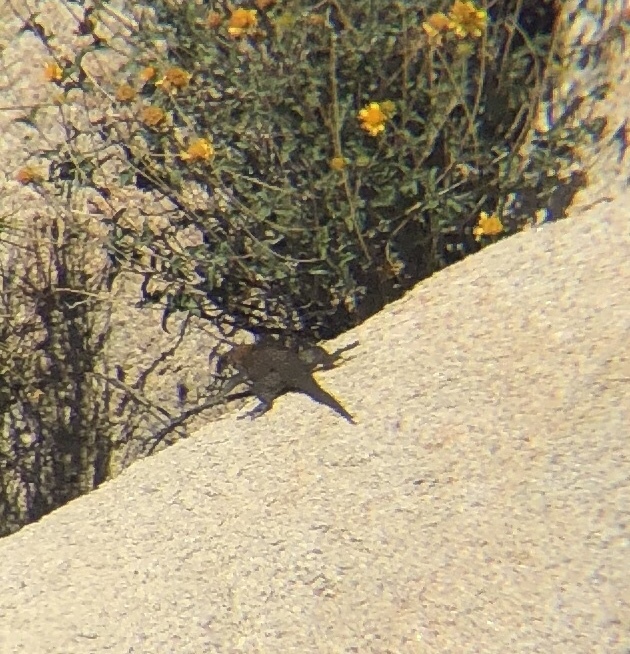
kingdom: Animalia
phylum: Chordata
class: Squamata
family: Phrynosomatidae
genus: Sceloporus
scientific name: Sceloporus orcutti
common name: Granite spiny lizard
